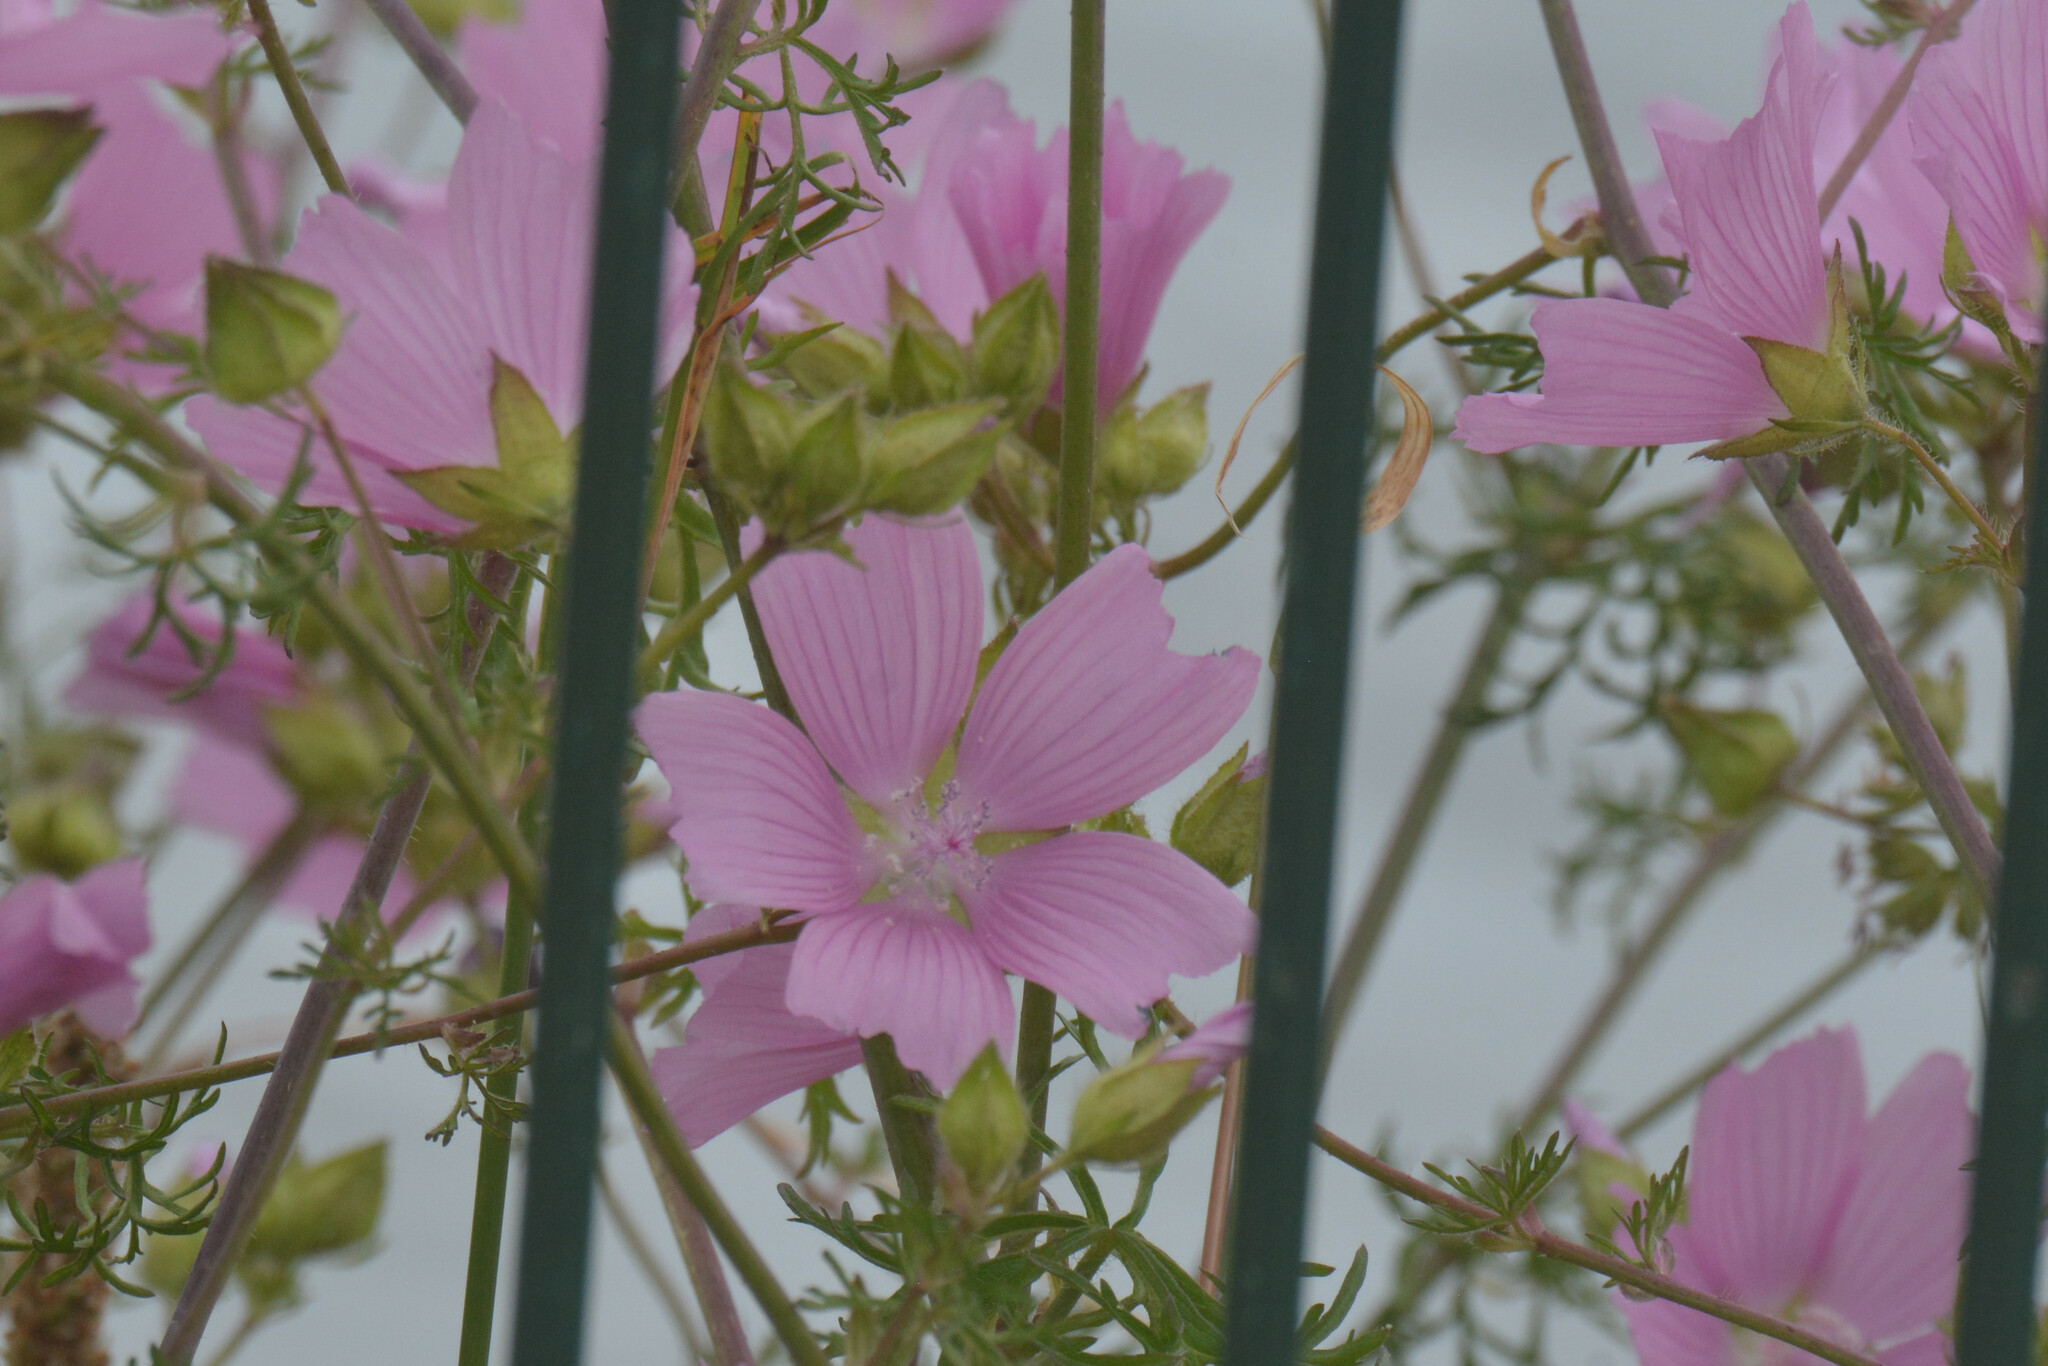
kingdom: Plantae
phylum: Tracheophyta
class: Magnoliopsida
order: Malvales
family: Malvaceae
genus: Malva
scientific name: Malva moschata
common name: Musk mallow
